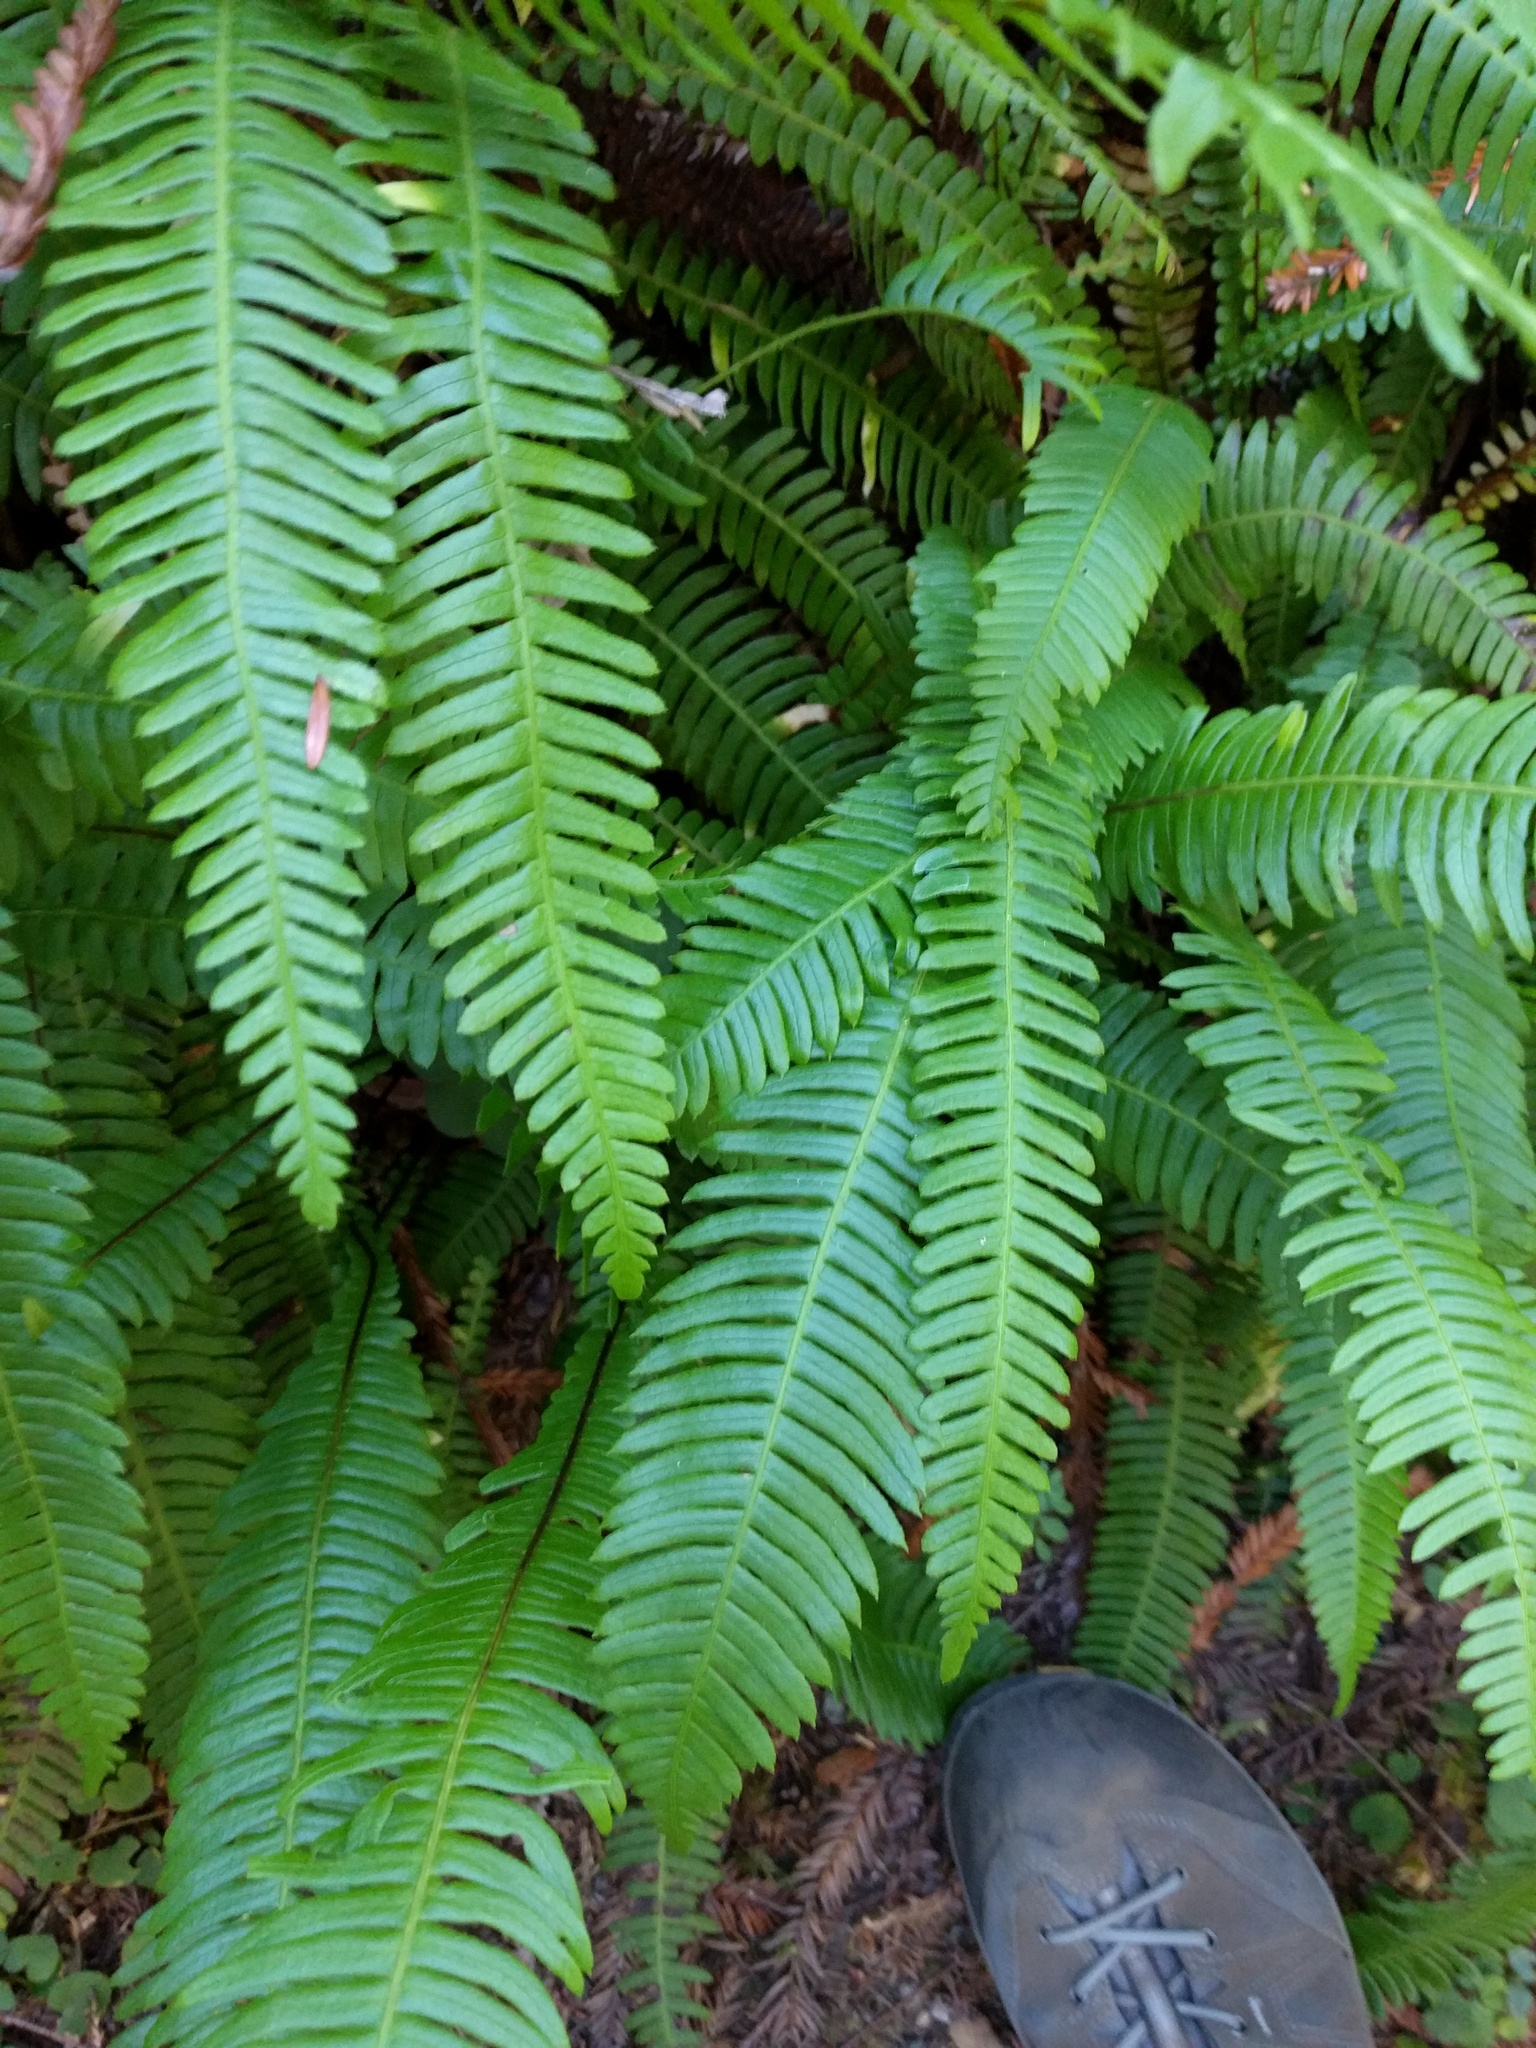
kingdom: Plantae
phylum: Tracheophyta
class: Polypodiopsida
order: Polypodiales
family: Blechnaceae
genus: Struthiopteris
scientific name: Struthiopteris spicant
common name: Deer fern
